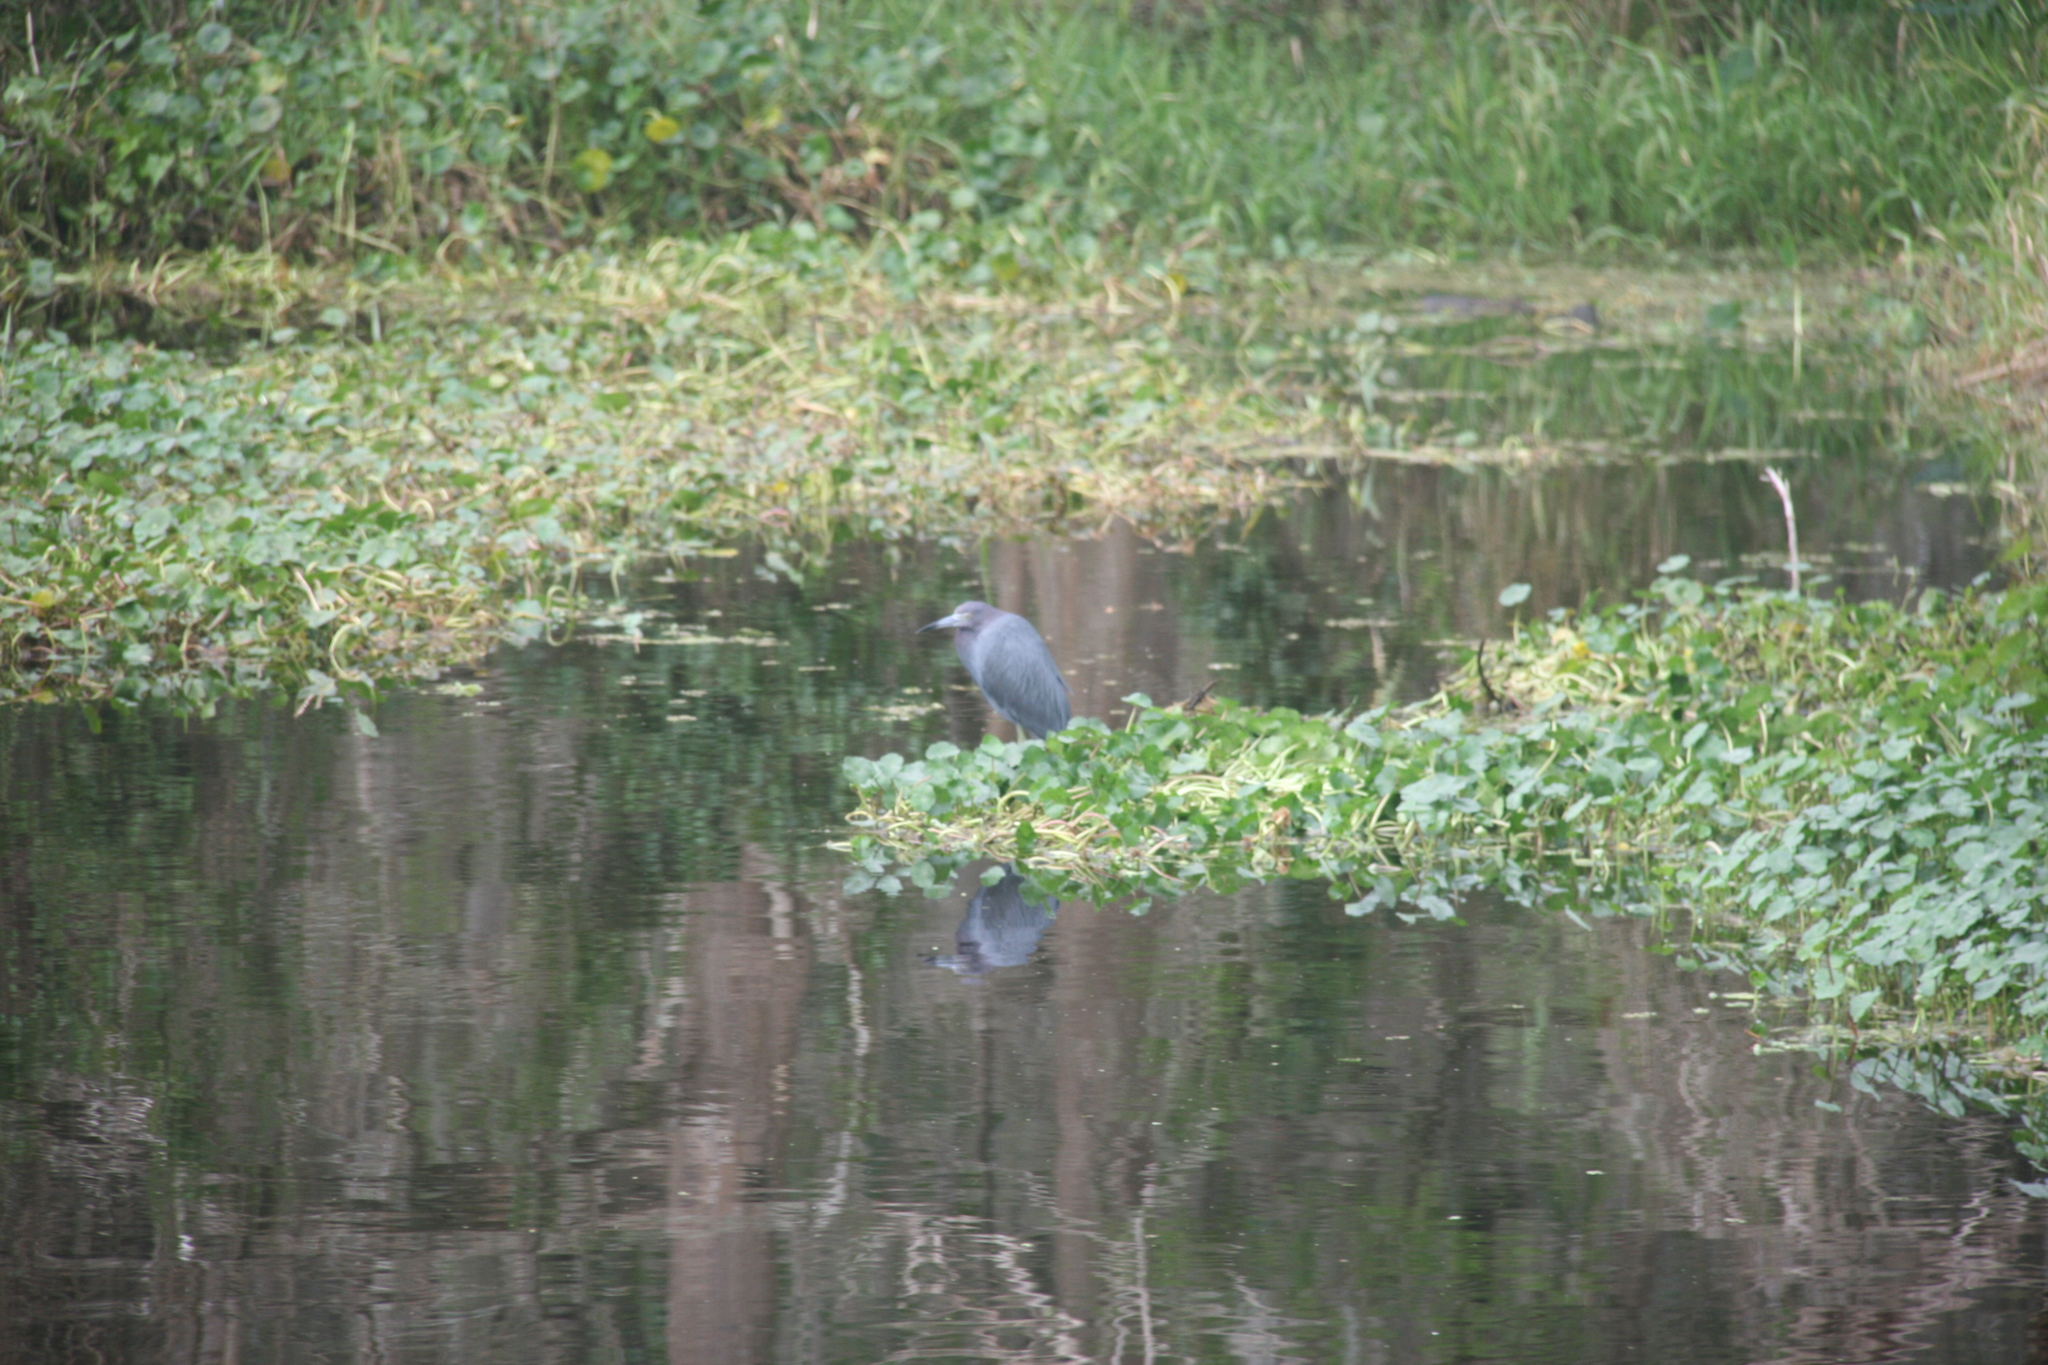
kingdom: Animalia
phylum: Chordata
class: Aves
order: Pelecaniformes
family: Ardeidae
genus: Egretta
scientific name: Egretta caerulea
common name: Little blue heron
